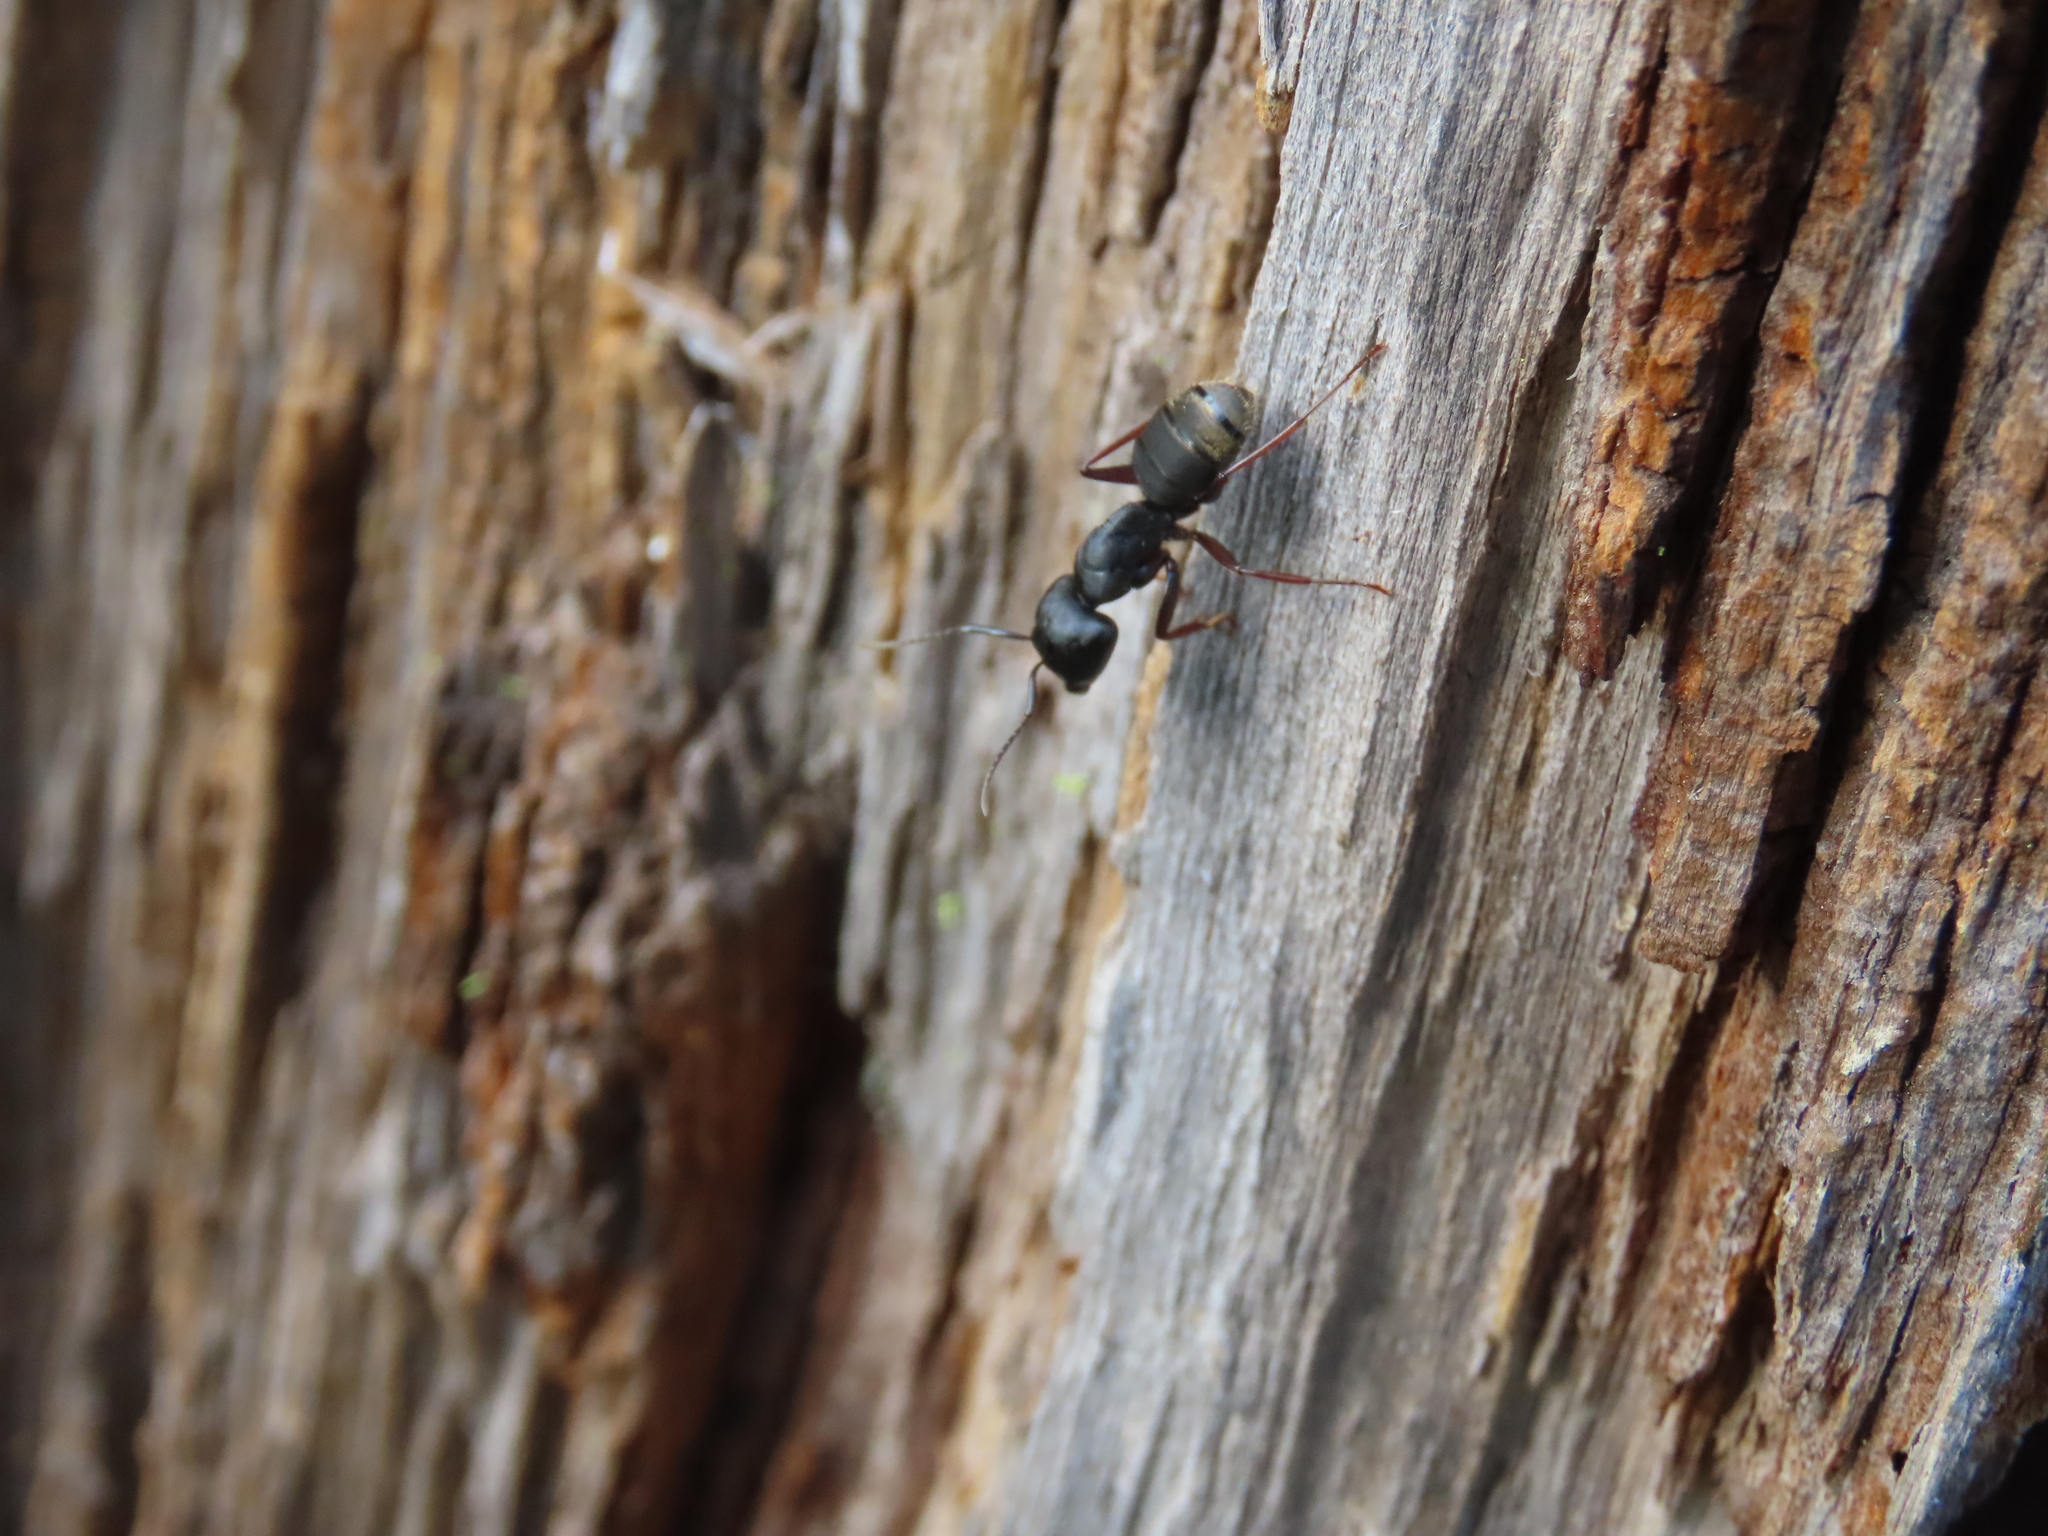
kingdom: Animalia
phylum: Arthropoda
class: Insecta
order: Hymenoptera
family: Formicidae
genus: Camponotus
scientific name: Camponotus modoc
